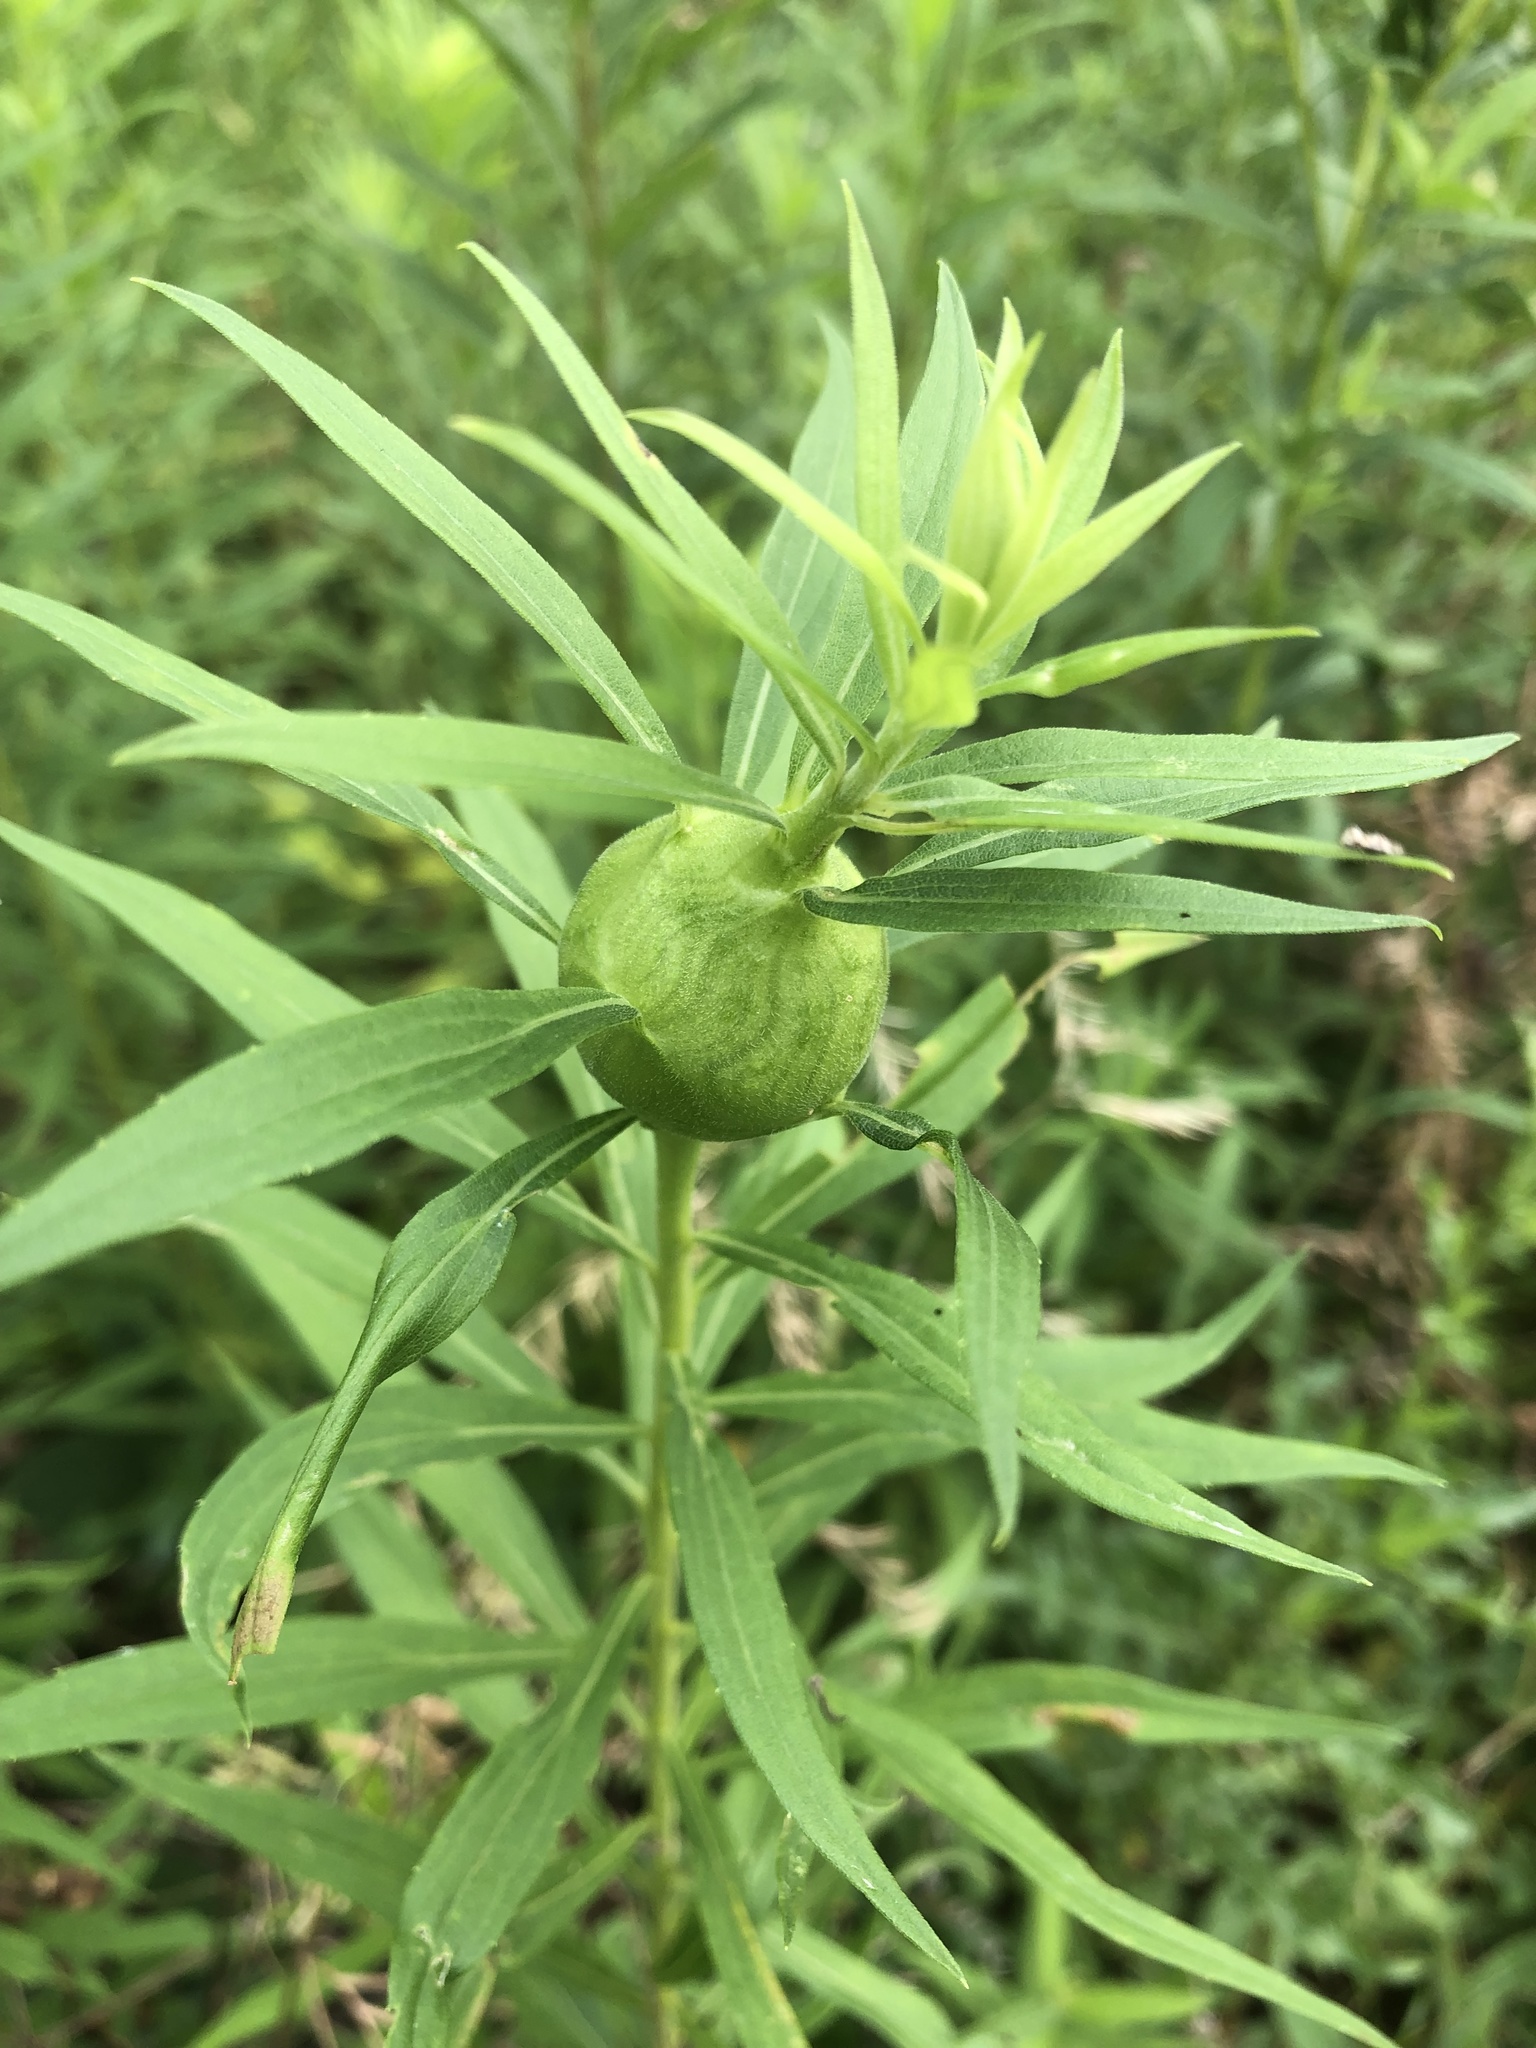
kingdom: Animalia
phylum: Arthropoda
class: Insecta
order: Diptera
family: Tephritidae
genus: Eurosta
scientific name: Eurosta solidaginis
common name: Goldenrod gall fly
